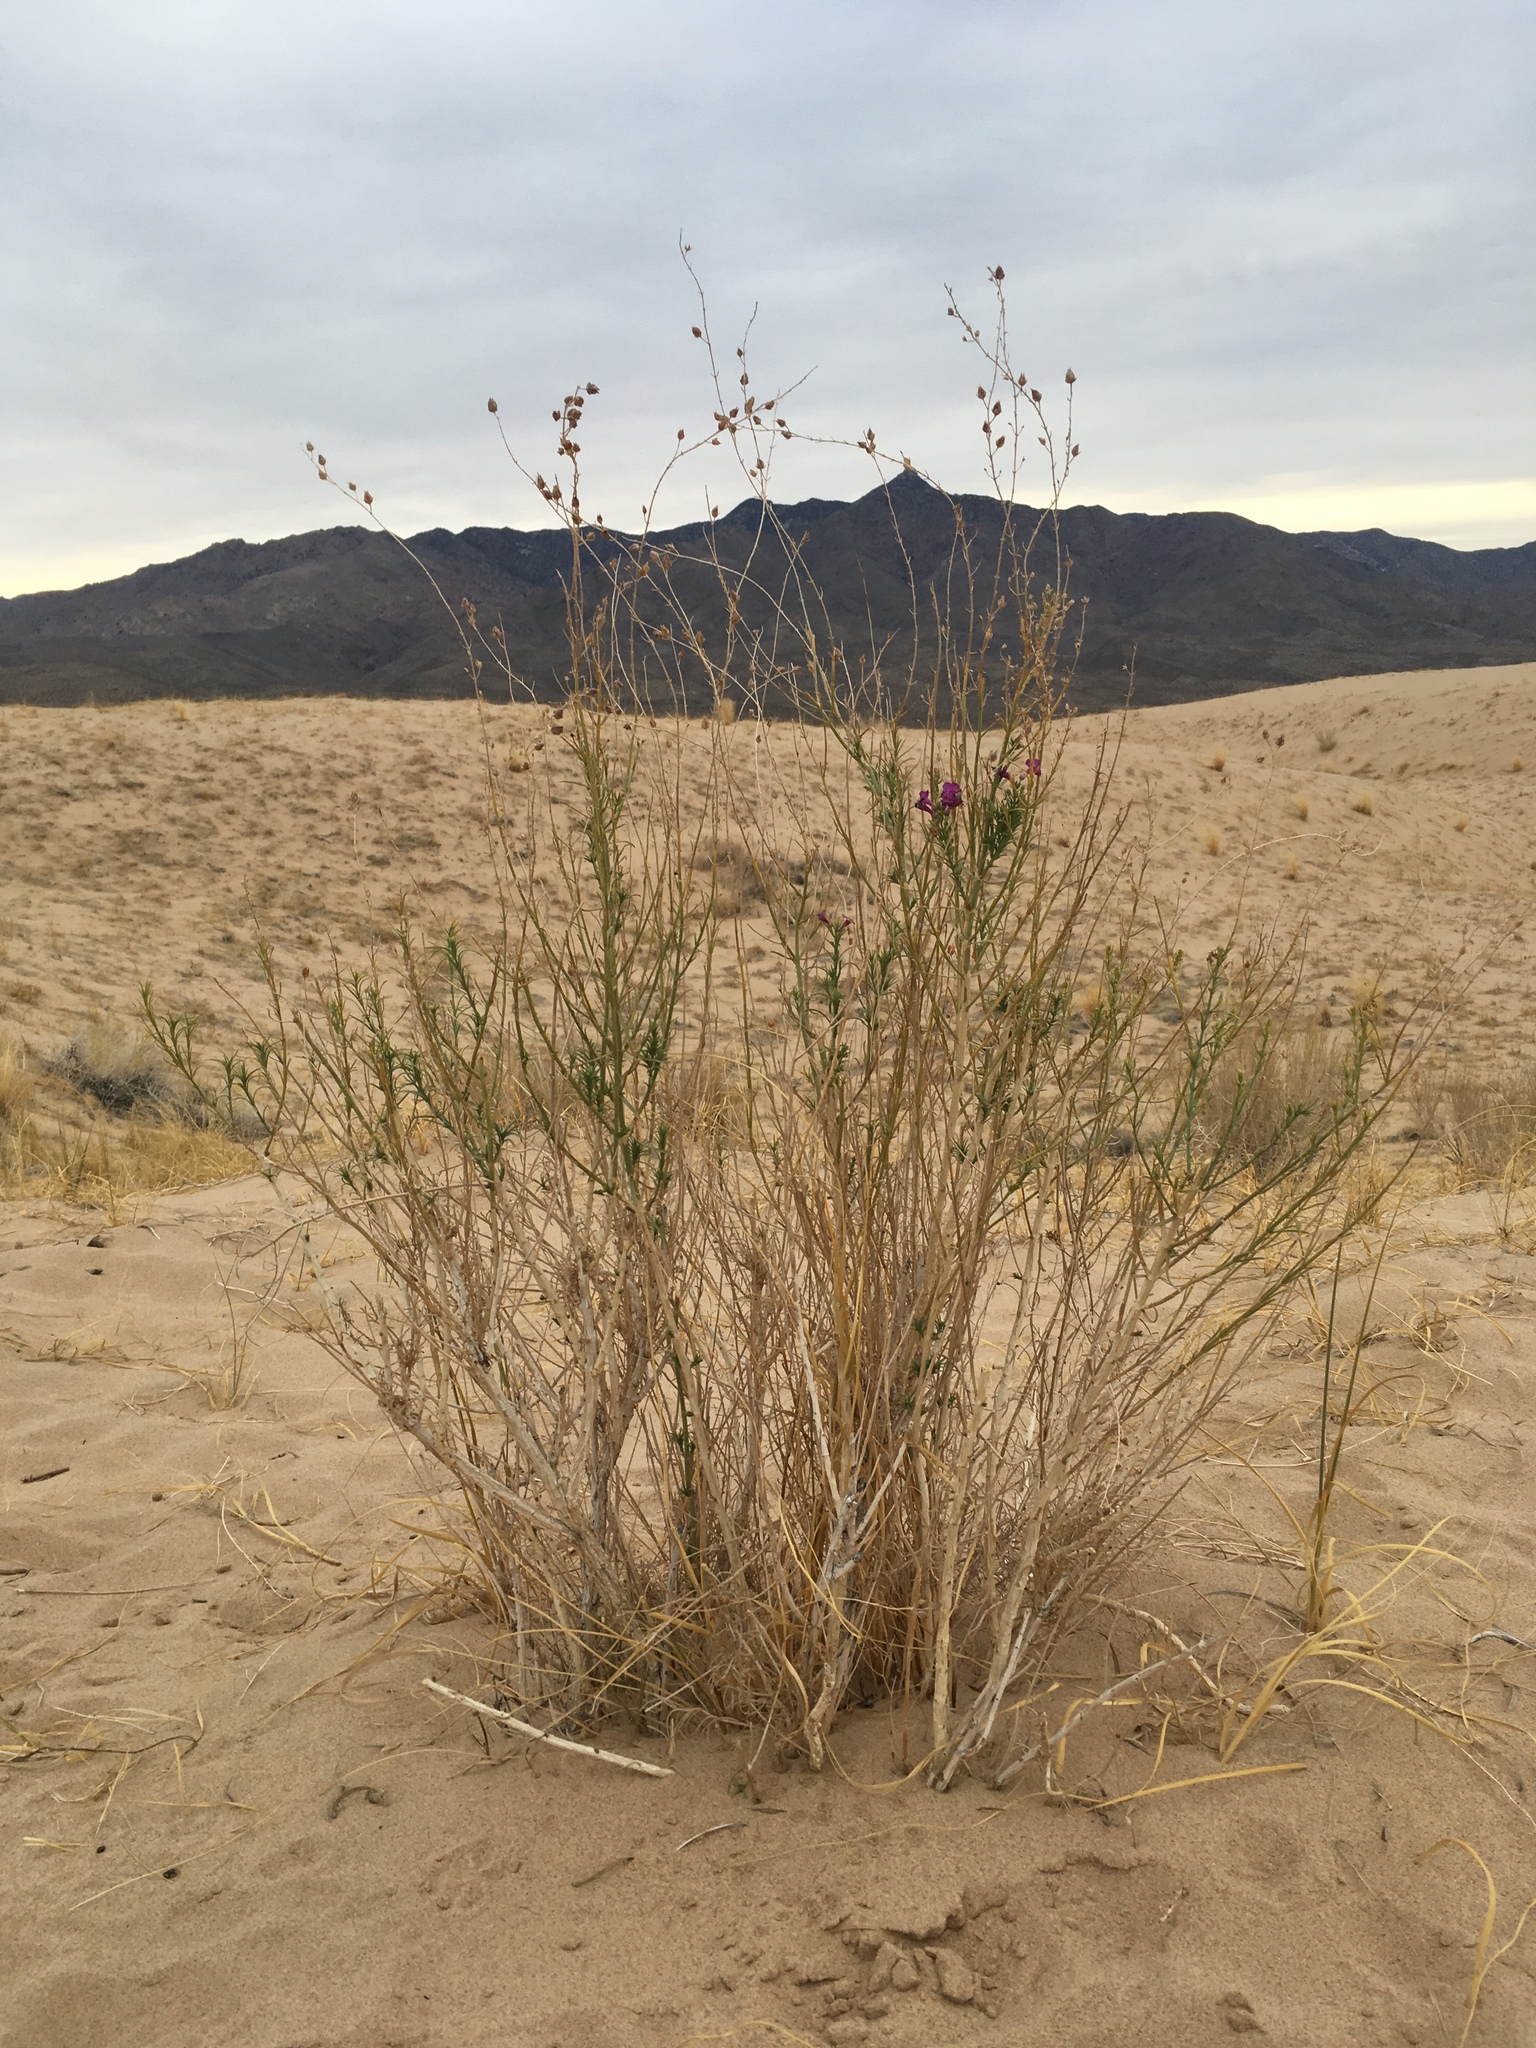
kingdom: Plantae
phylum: Tracheophyta
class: Magnoliopsida
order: Lamiales
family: Plantaginaceae
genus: Penstemon
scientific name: Penstemon thurberi
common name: Thurber's beardtongue
